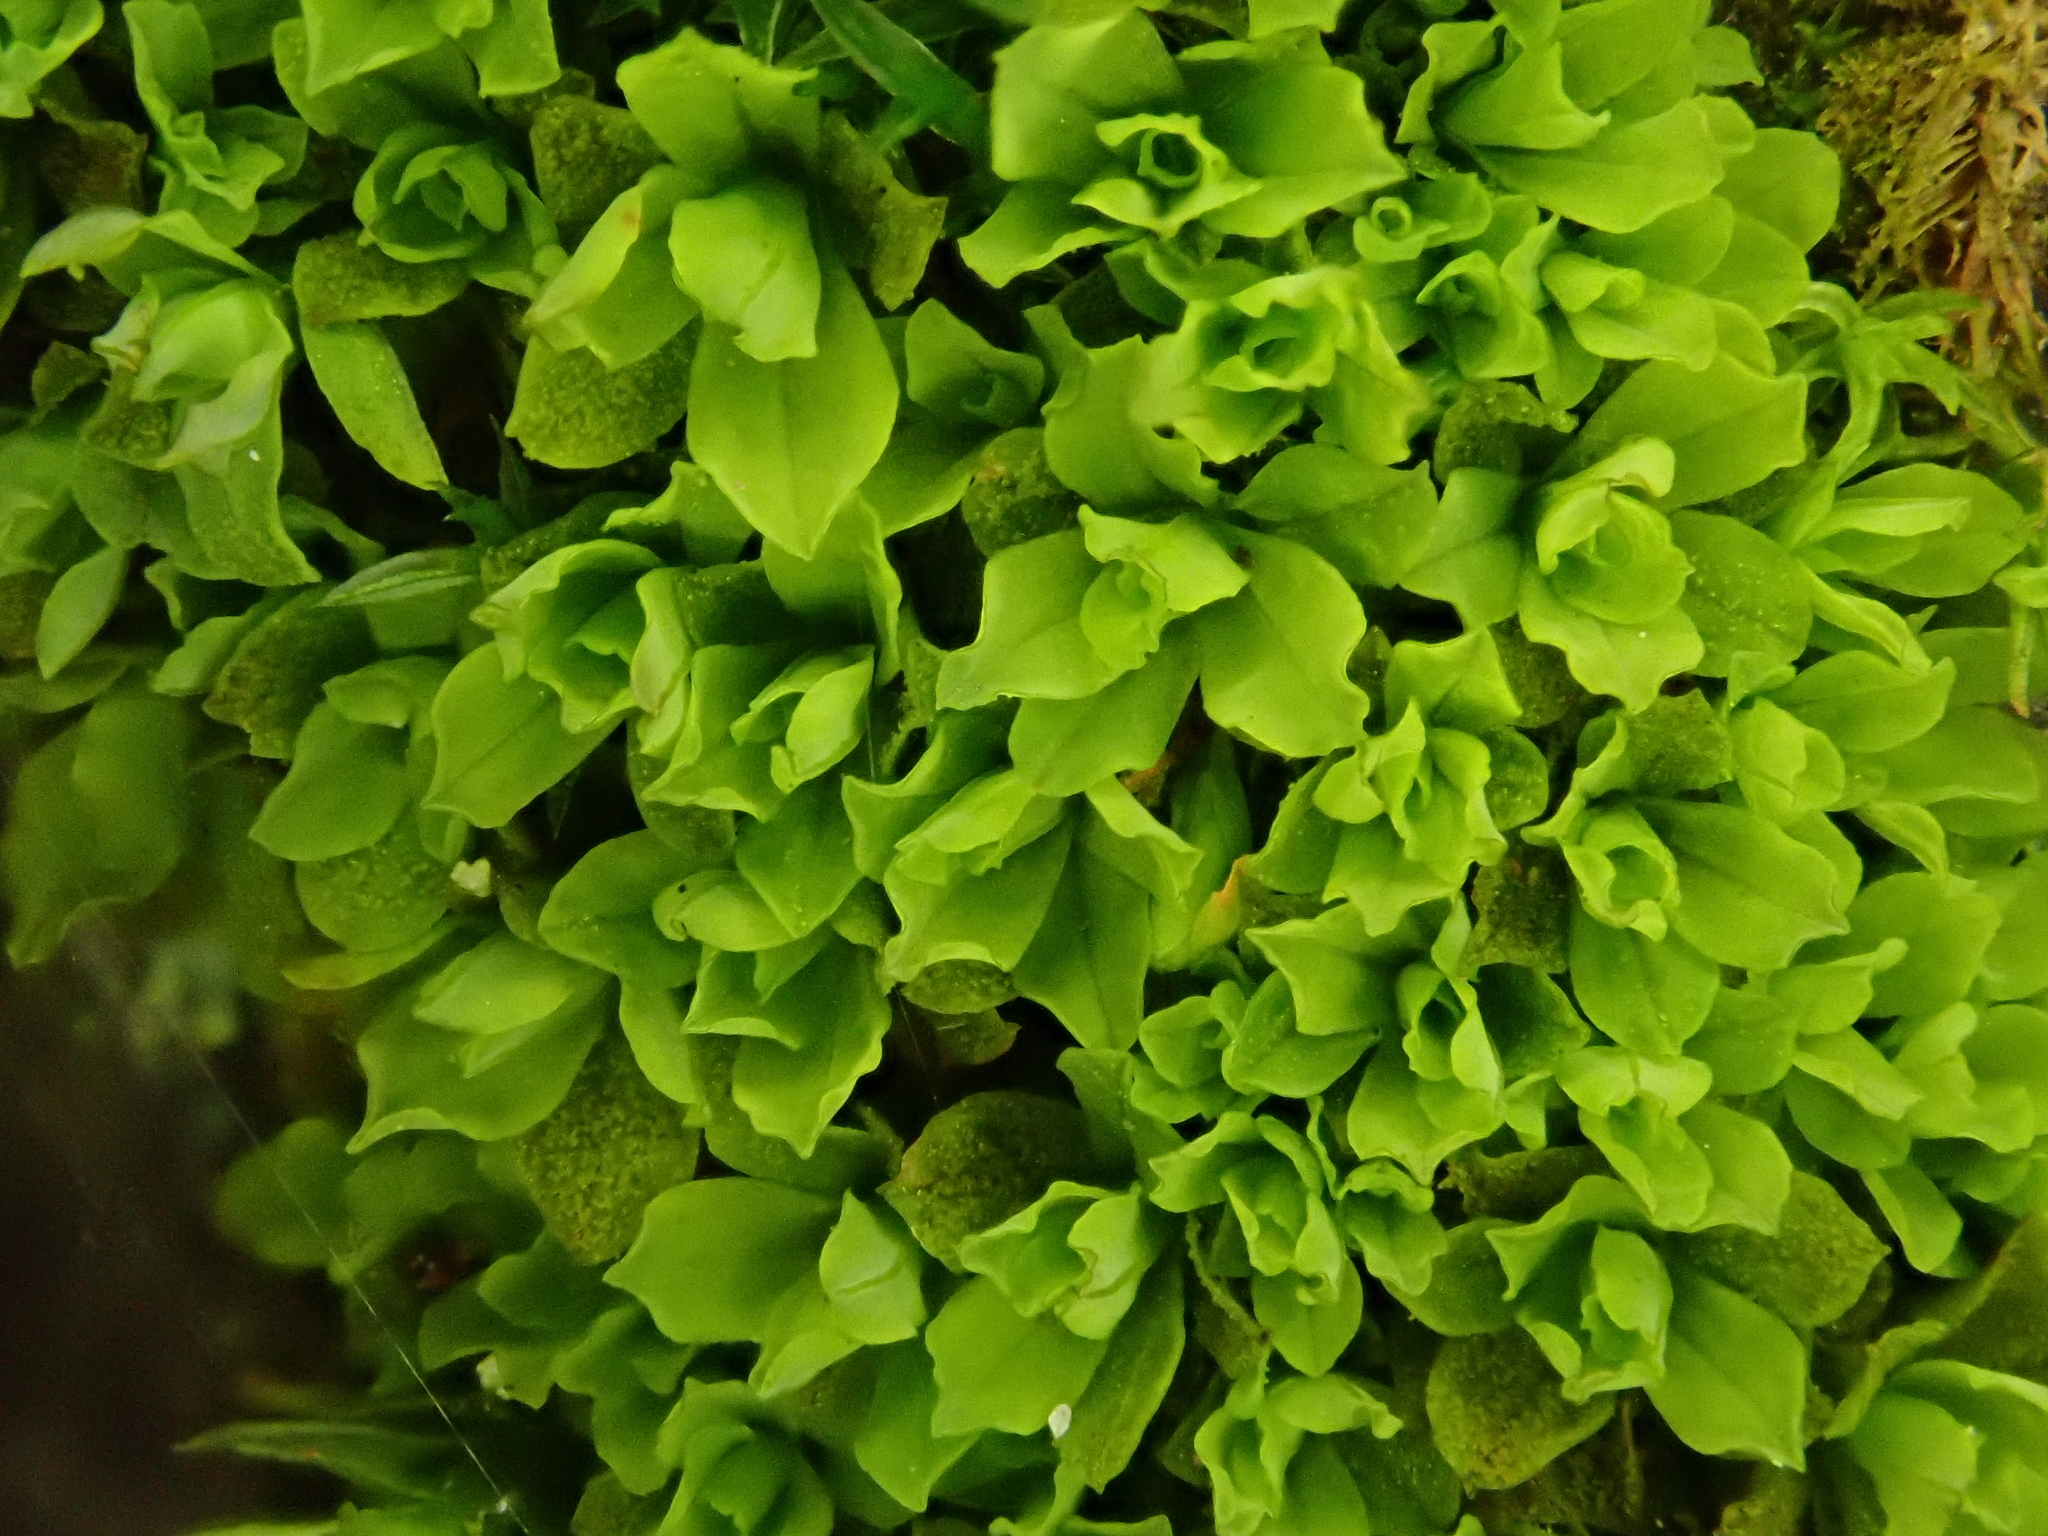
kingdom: Plantae
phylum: Bryophyta
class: Bryopsida
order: Pottiales
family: Pottiaceae
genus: Syntrichia
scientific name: Syntrichia latifolia
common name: Water screw-moss
